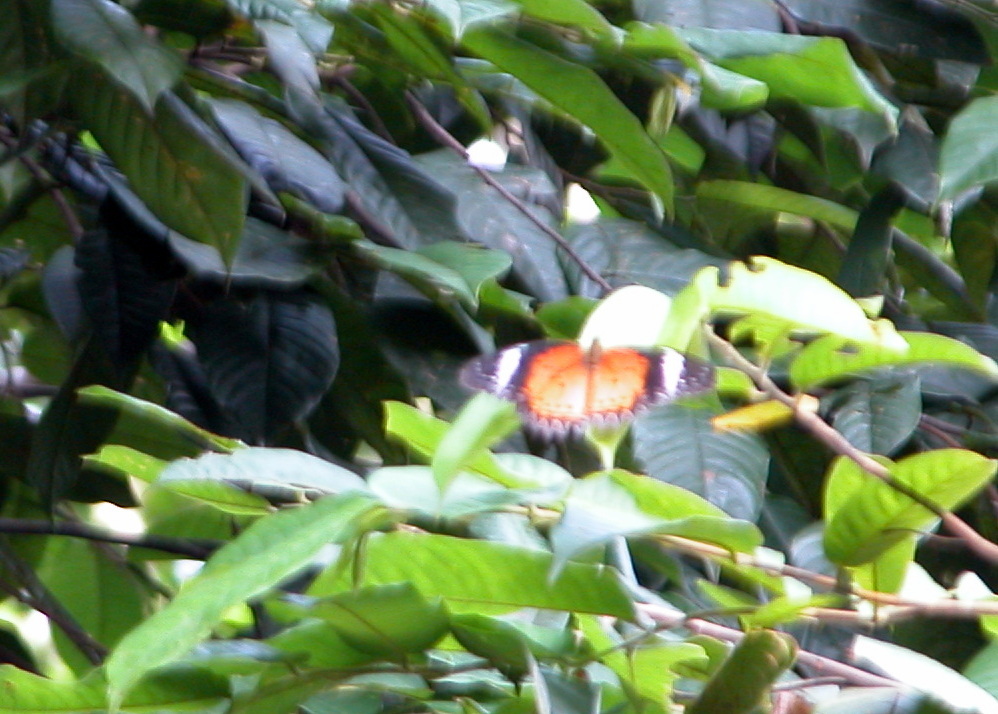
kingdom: Animalia
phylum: Arthropoda
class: Insecta
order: Lepidoptera
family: Nymphalidae
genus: Cethosia
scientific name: Cethosia cyane
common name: Leopard lacewing butterfly
